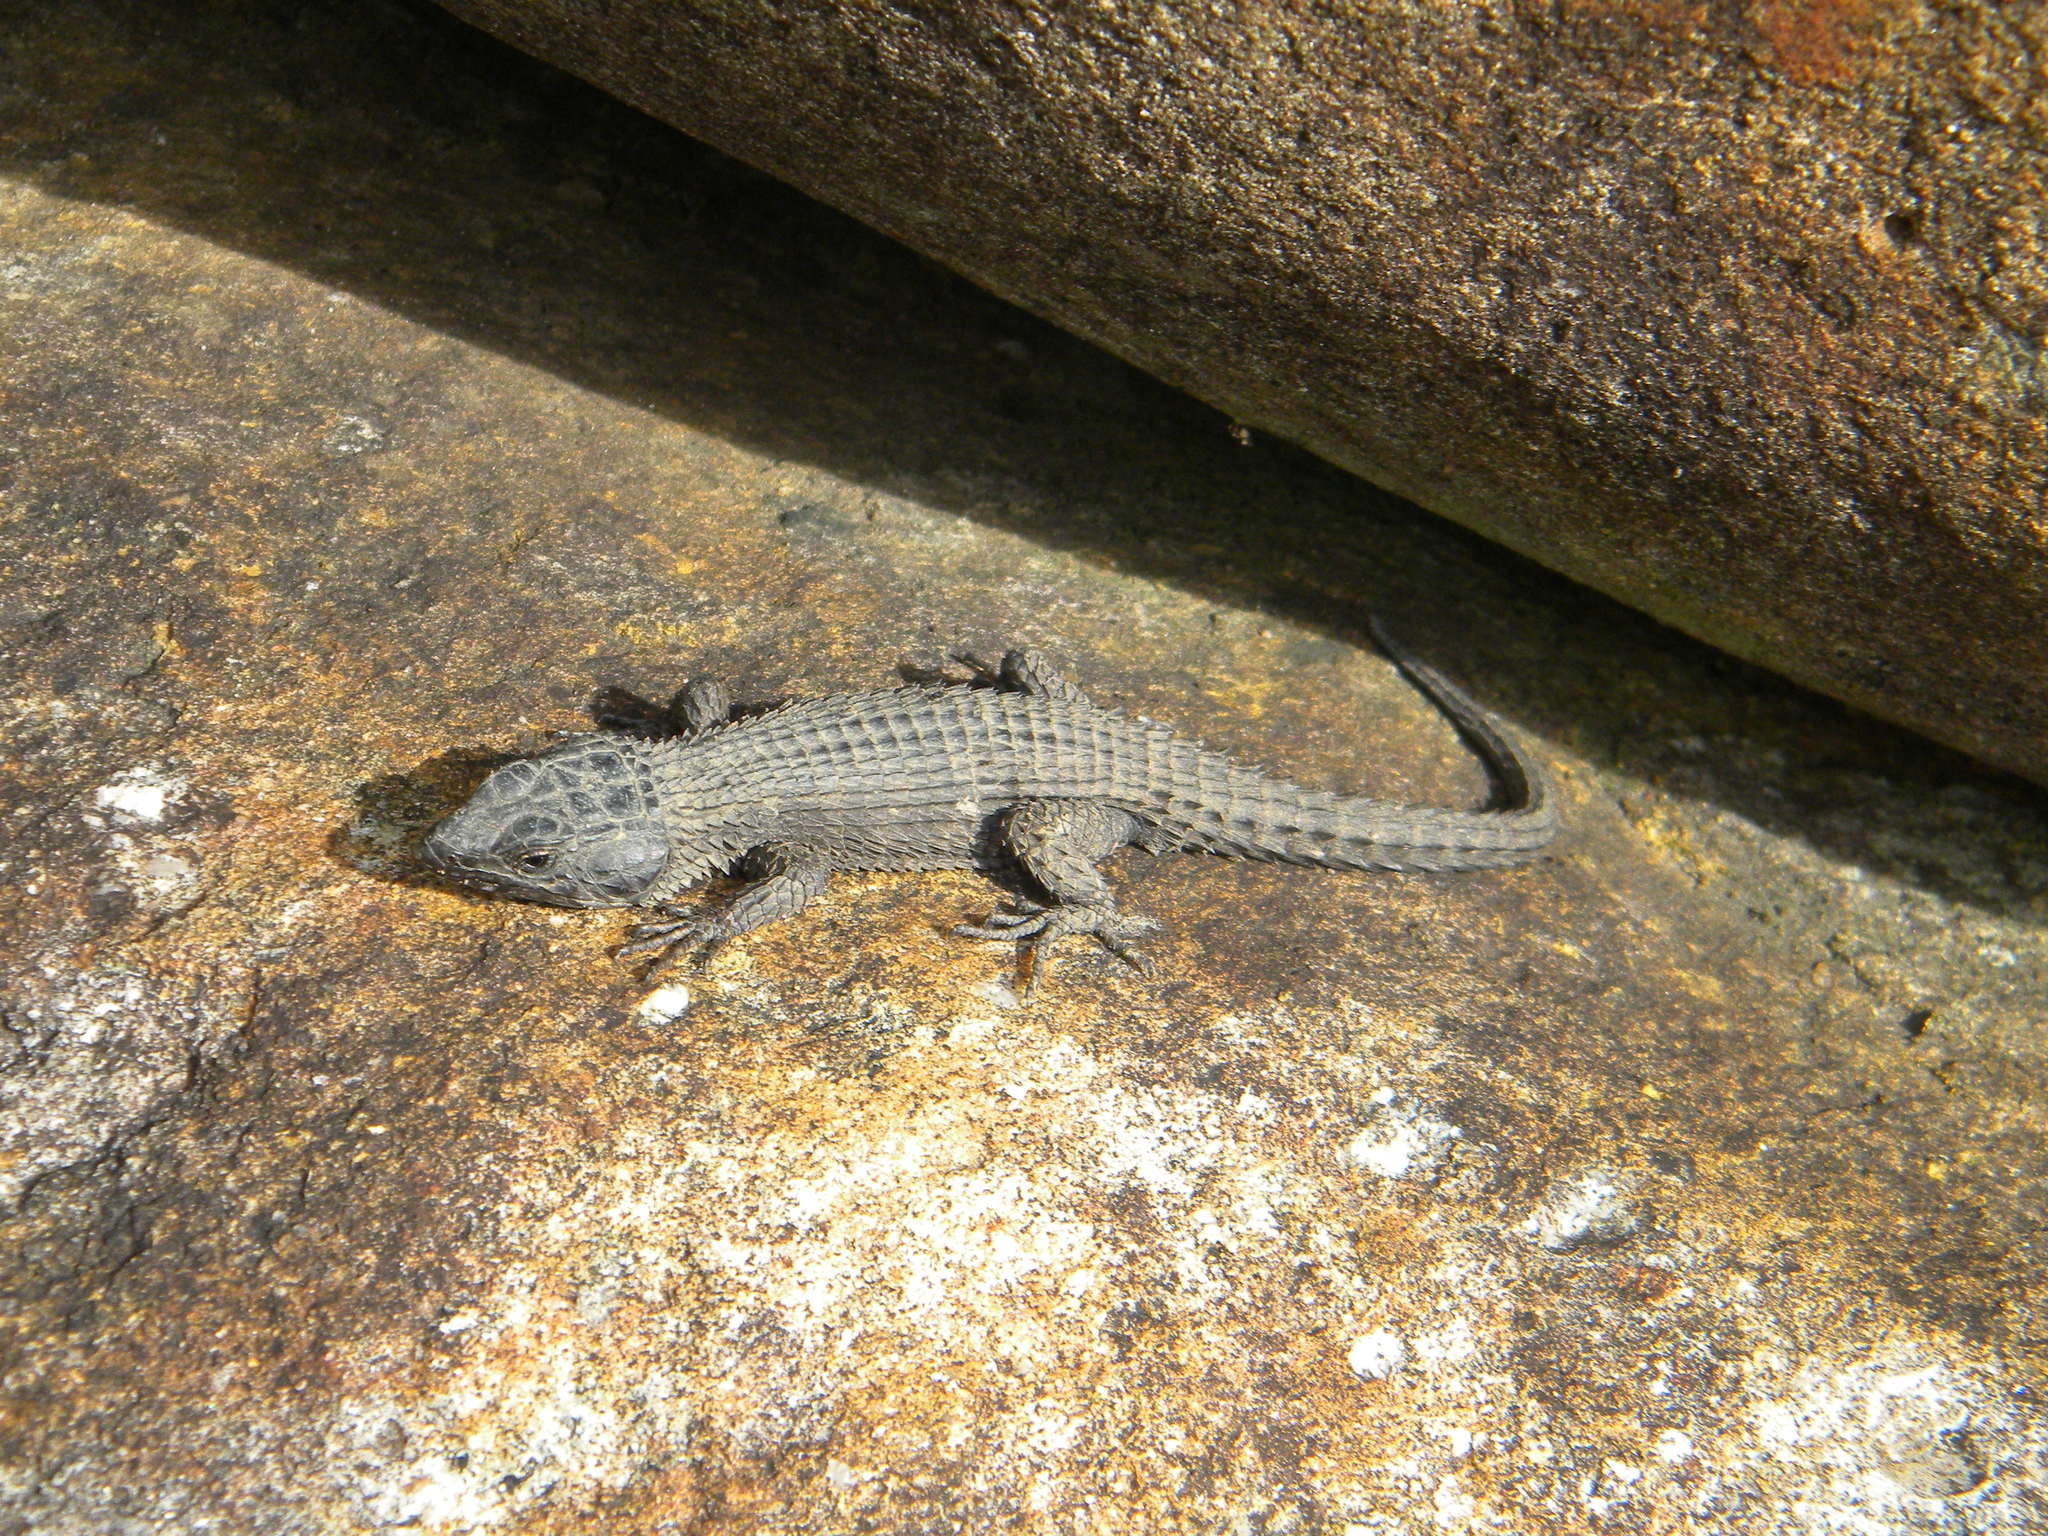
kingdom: Animalia
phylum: Chordata
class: Squamata
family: Cordylidae
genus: Cordylus
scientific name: Cordylus niger
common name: Black girdled lizard
